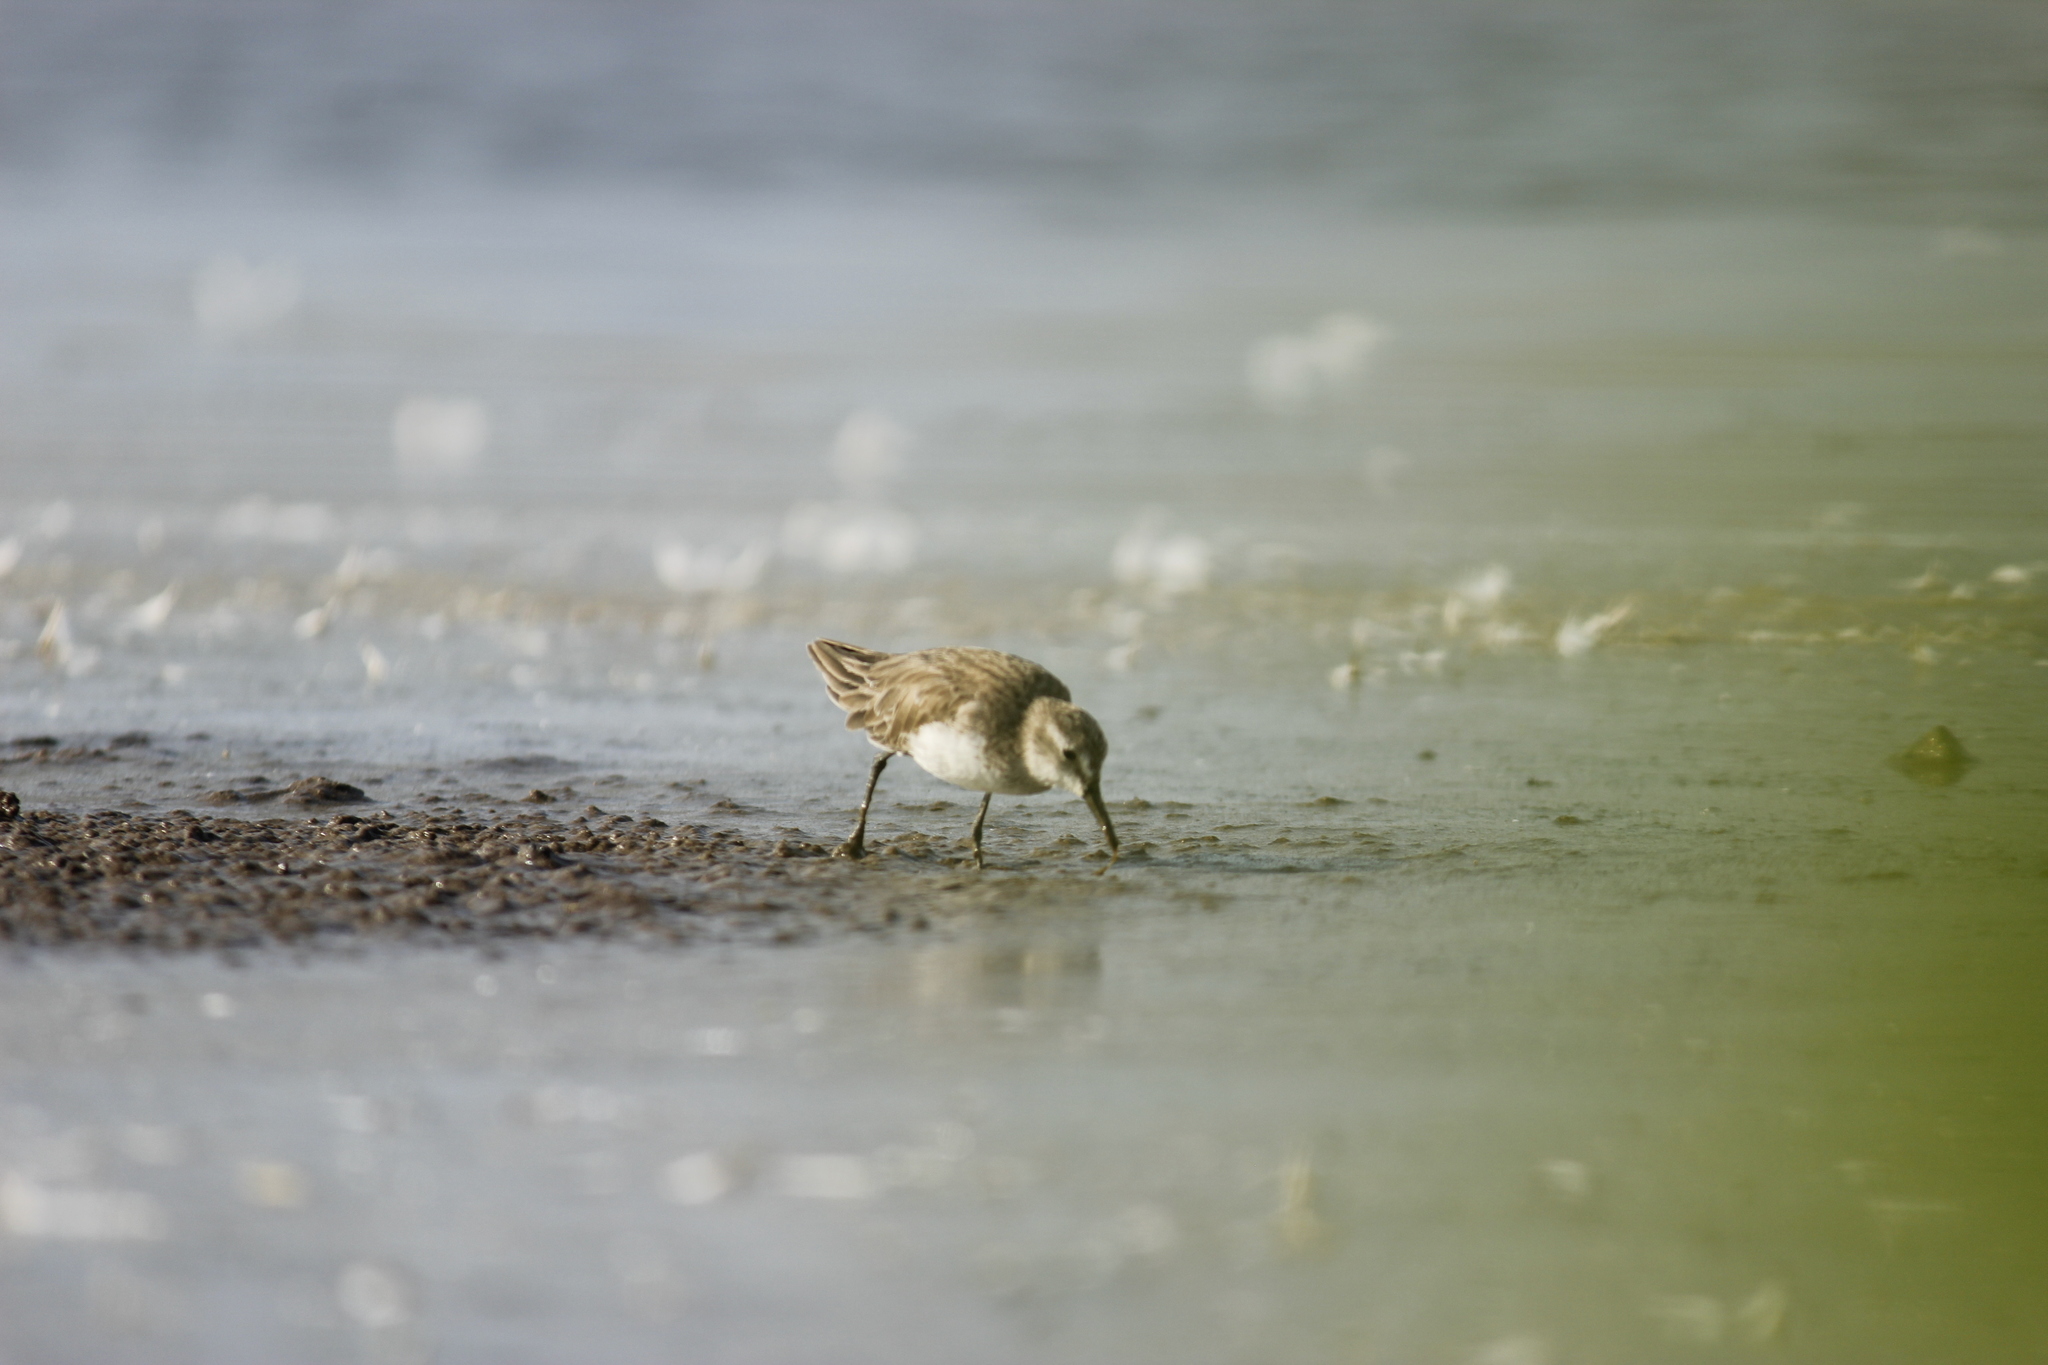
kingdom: Animalia
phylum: Chordata
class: Aves
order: Charadriiformes
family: Scolopacidae
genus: Calidris
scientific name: Calidris pusilla
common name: Semipalmated sandpiper
